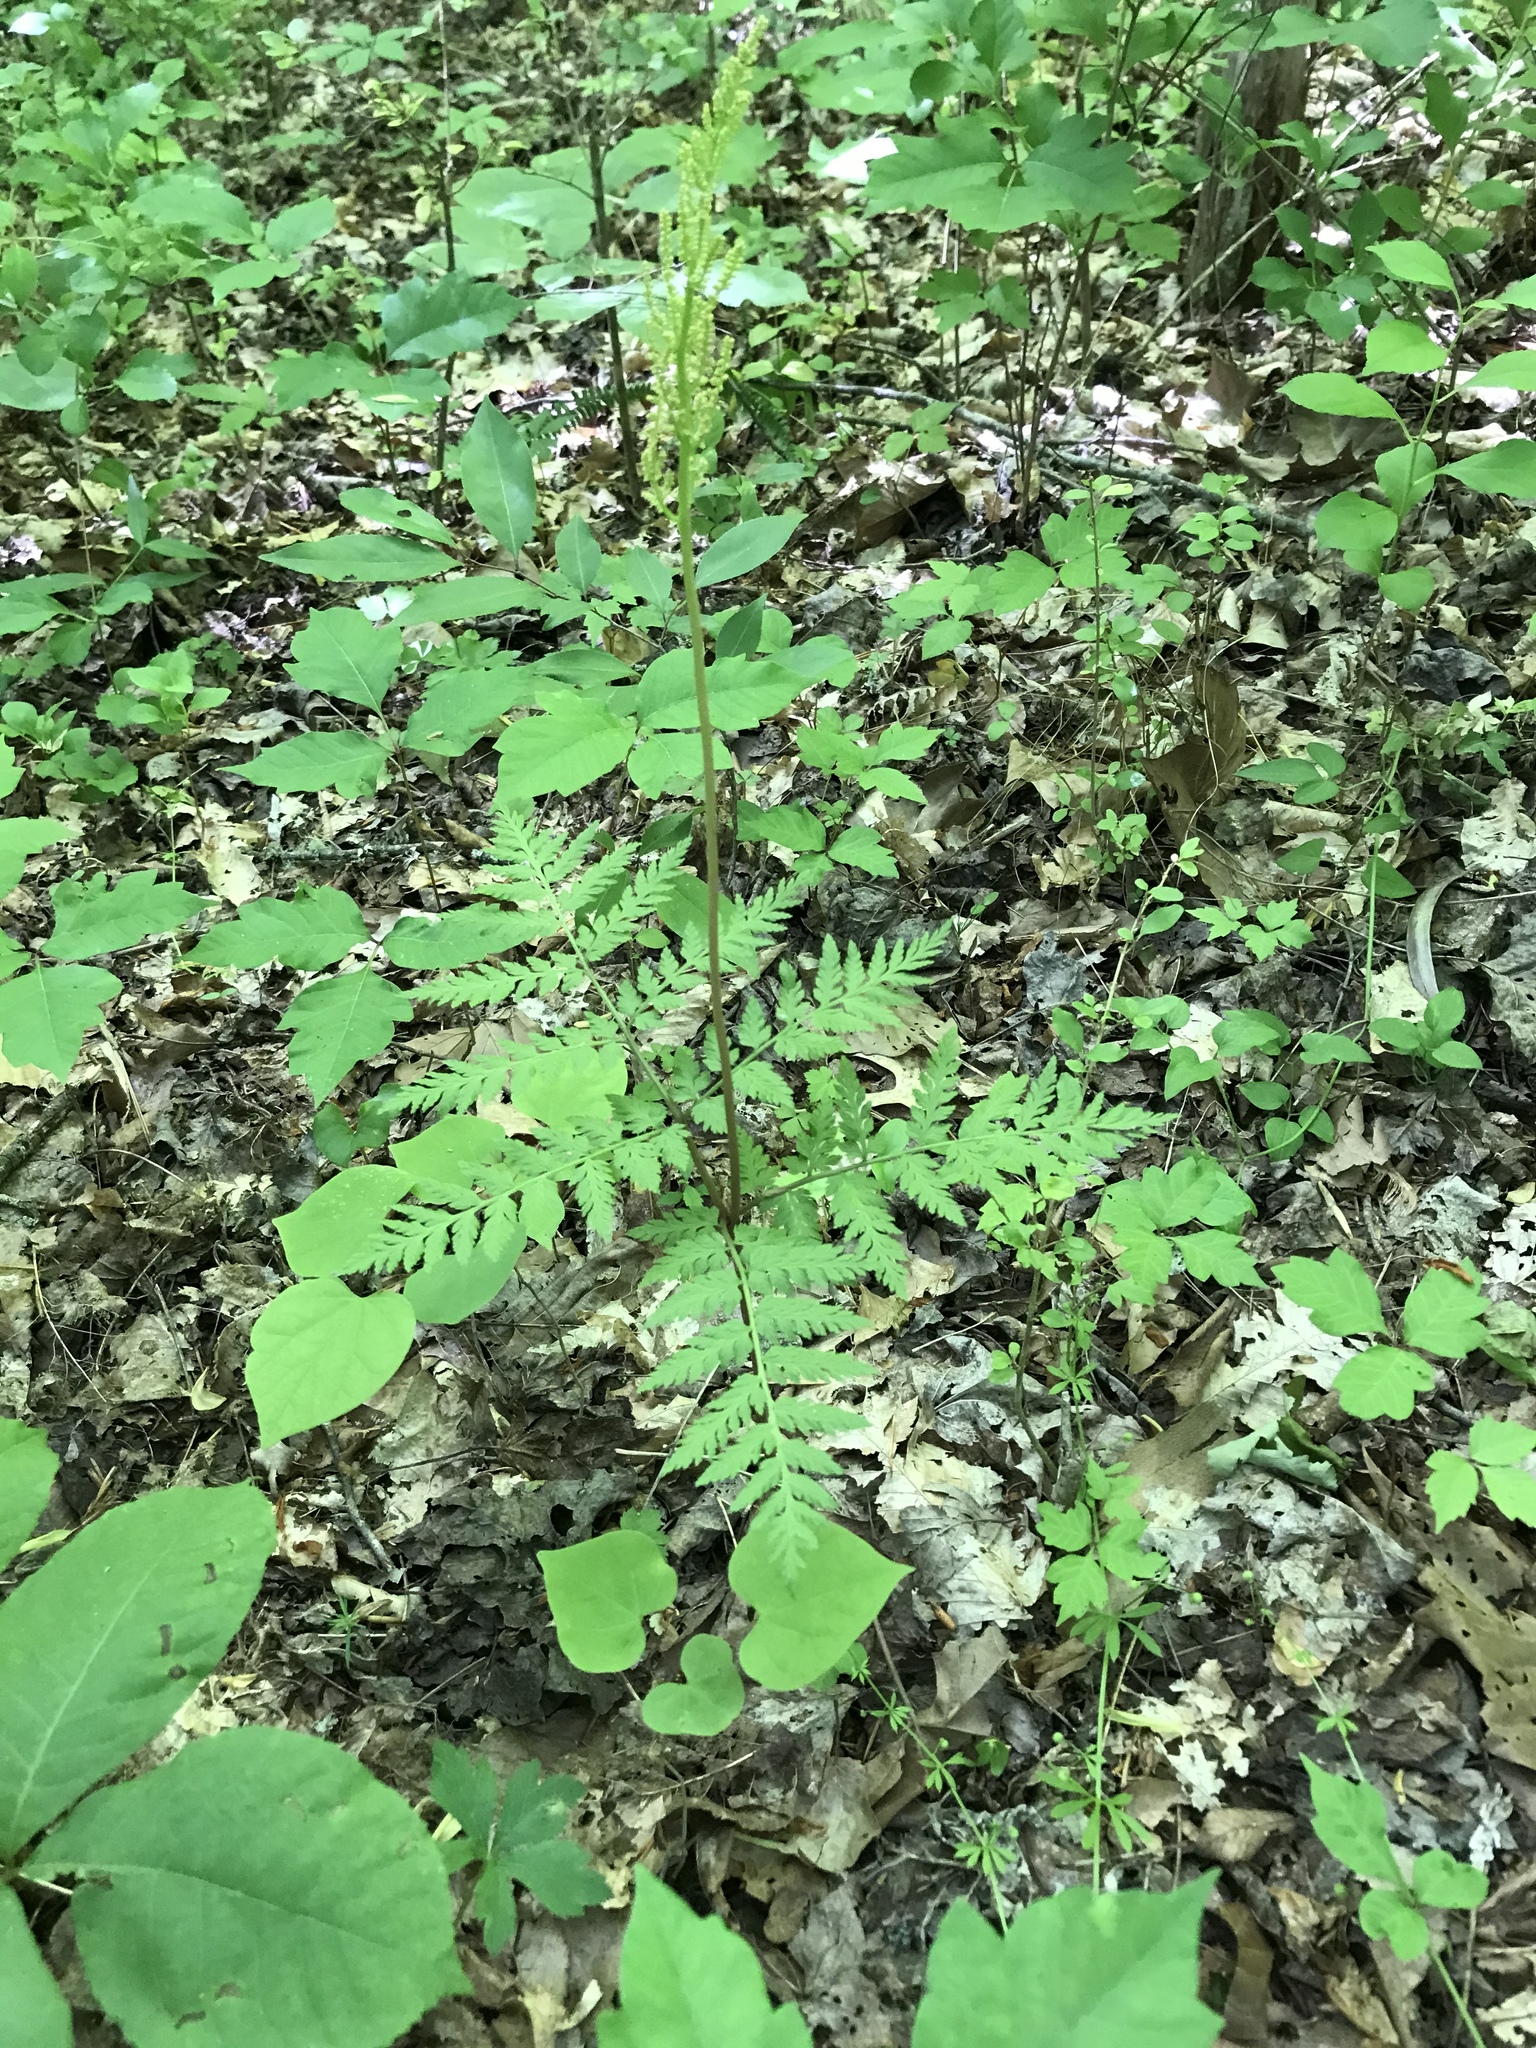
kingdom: Plantae
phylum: Tracheophyta
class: Polypodiopsida
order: Ophioglossales
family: Ophioglossaceae
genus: Botrypus
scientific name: Botrypus virginianus
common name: Common grapefern
